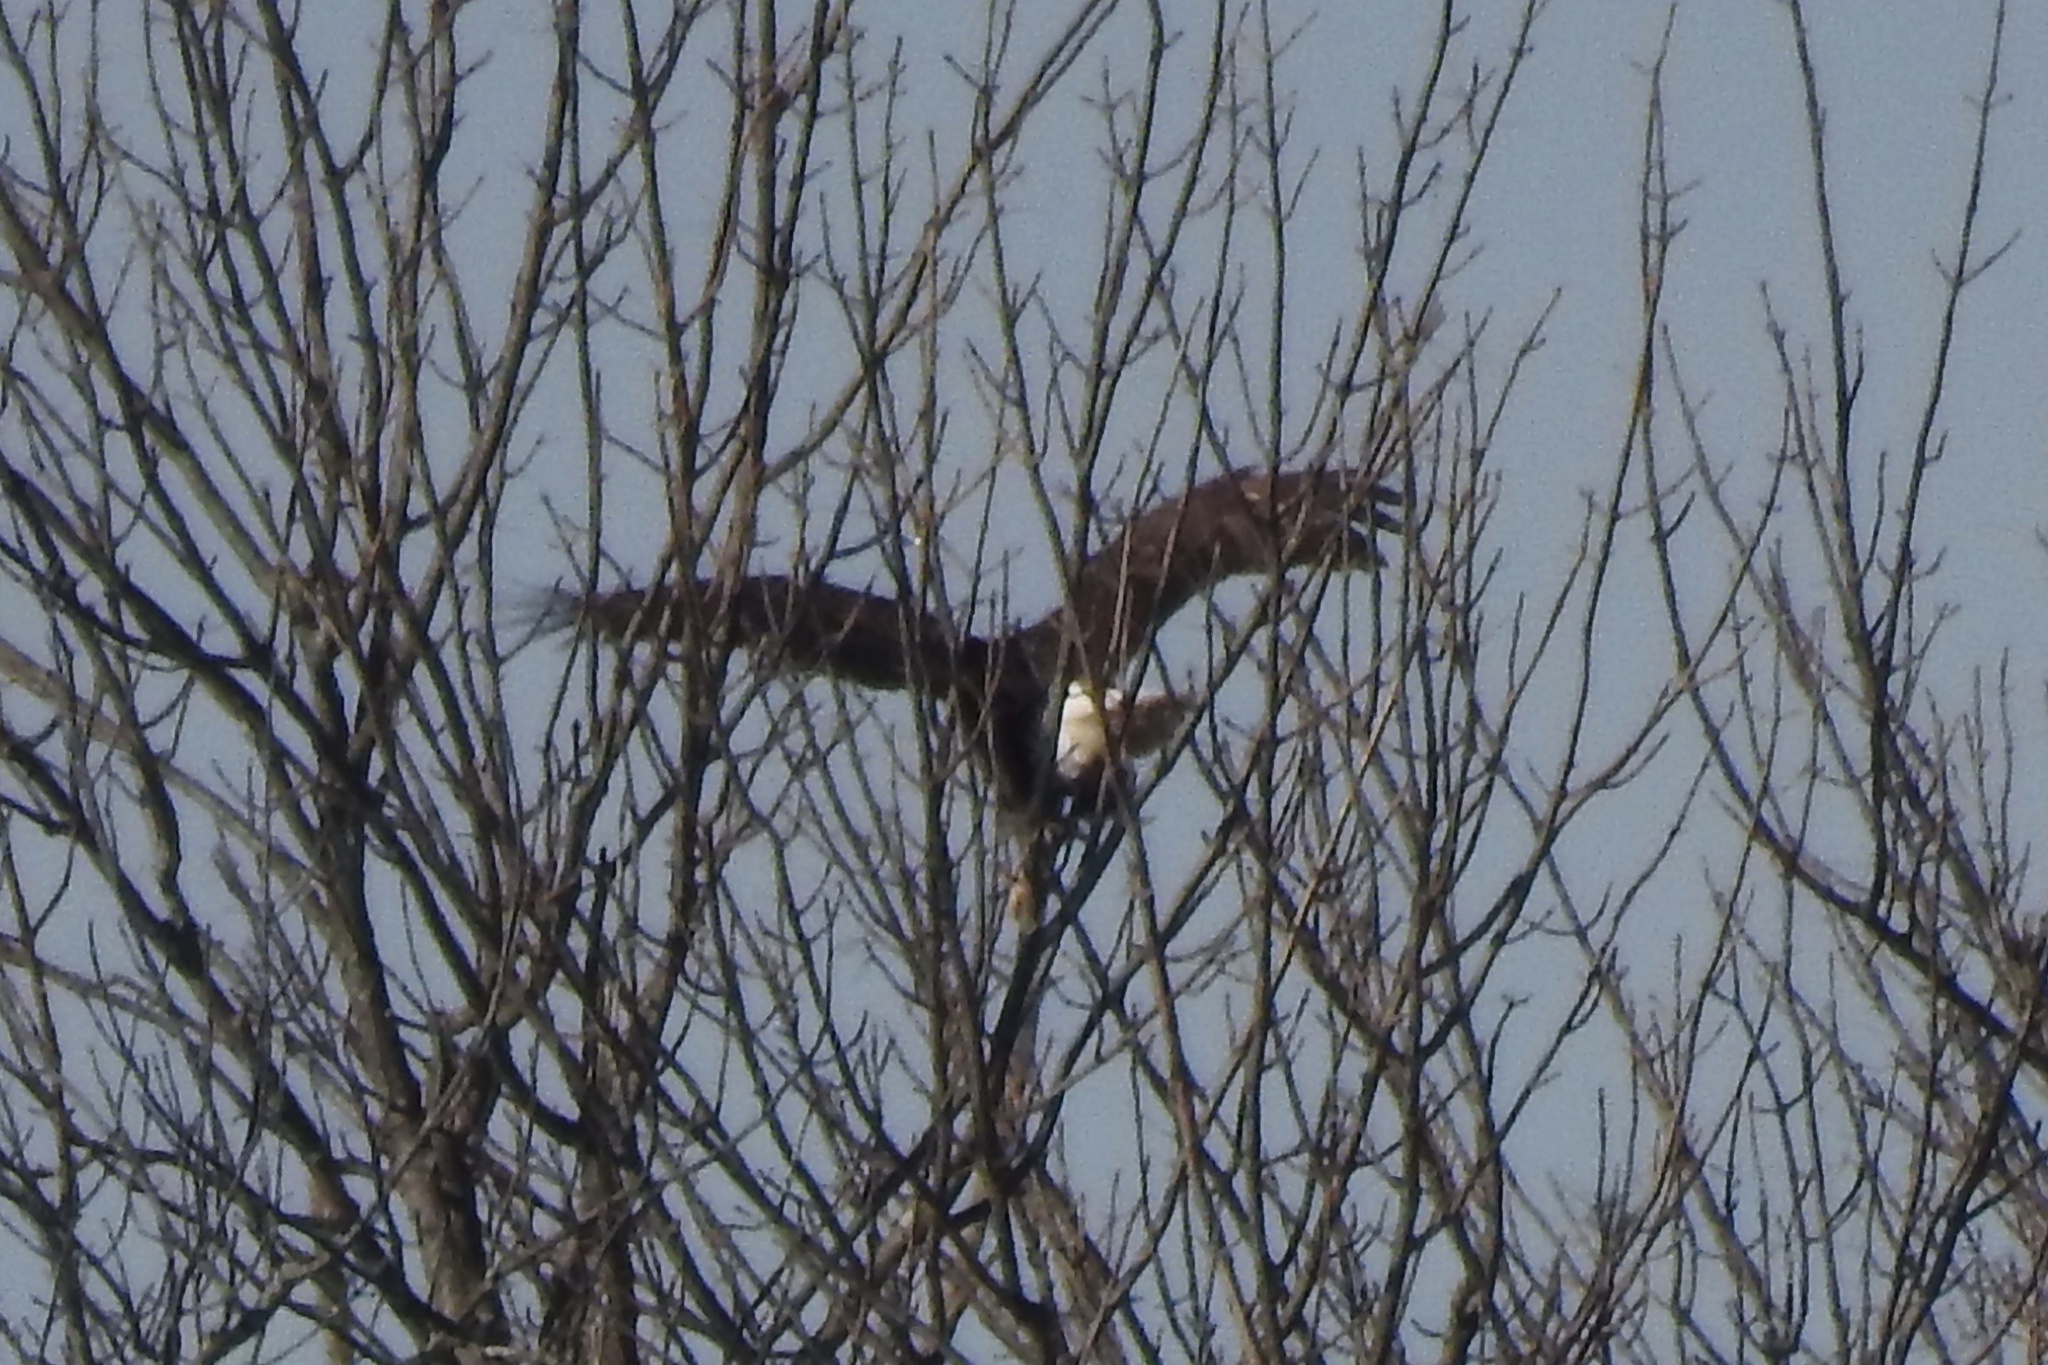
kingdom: Animalia
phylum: Chordata
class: Aves
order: Accipitriformes
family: Accipitridae
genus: Haliaeetus
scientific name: Haliaeetus leucocephalus
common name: Bald eagle
